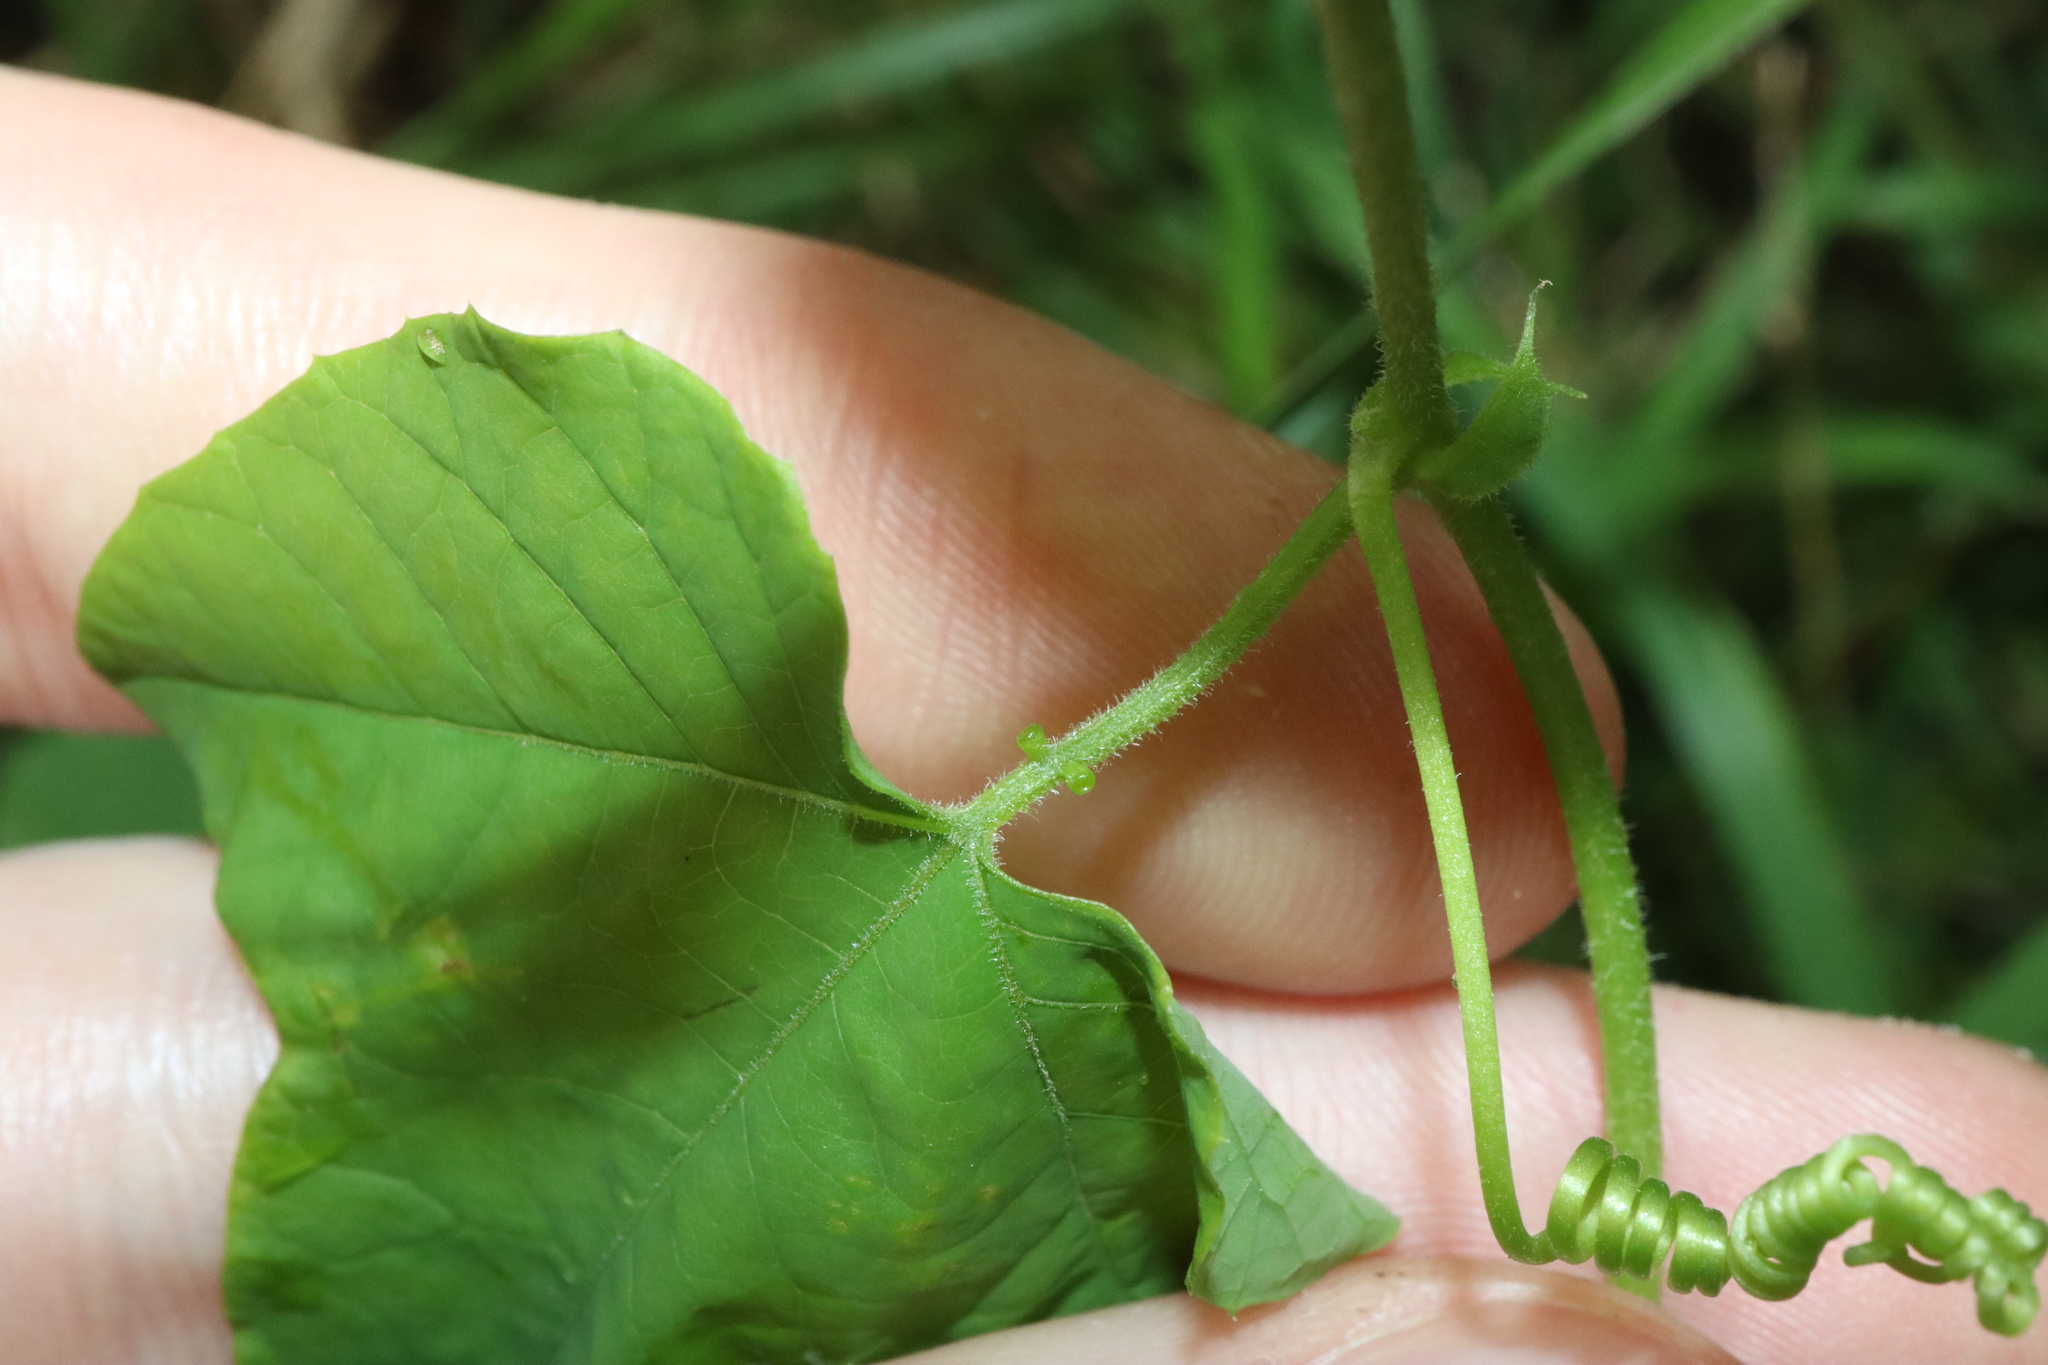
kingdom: Plantae
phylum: Tracheophyta
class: Magnoliopsida
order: Malpighiales
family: Passifloraceae
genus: Passiflora
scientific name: Passiflora morifolia
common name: Woodland passionflower
